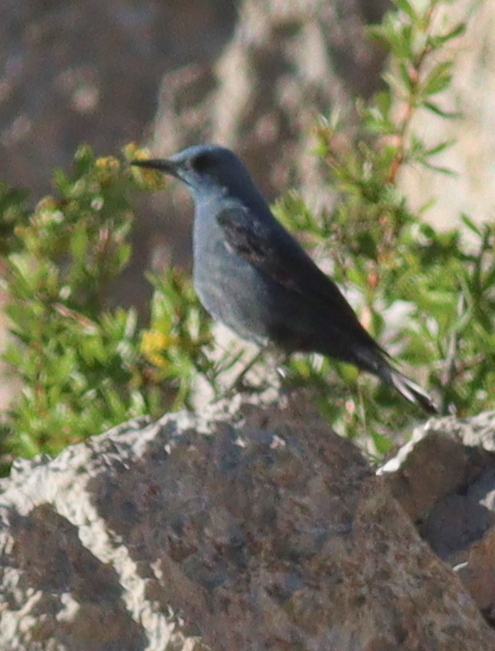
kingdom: Animalia
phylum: Chordata
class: Aves
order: Passeriformes
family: Muscicapidae
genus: Monticola
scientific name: Monticola solitarius
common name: Blue rock thrush
